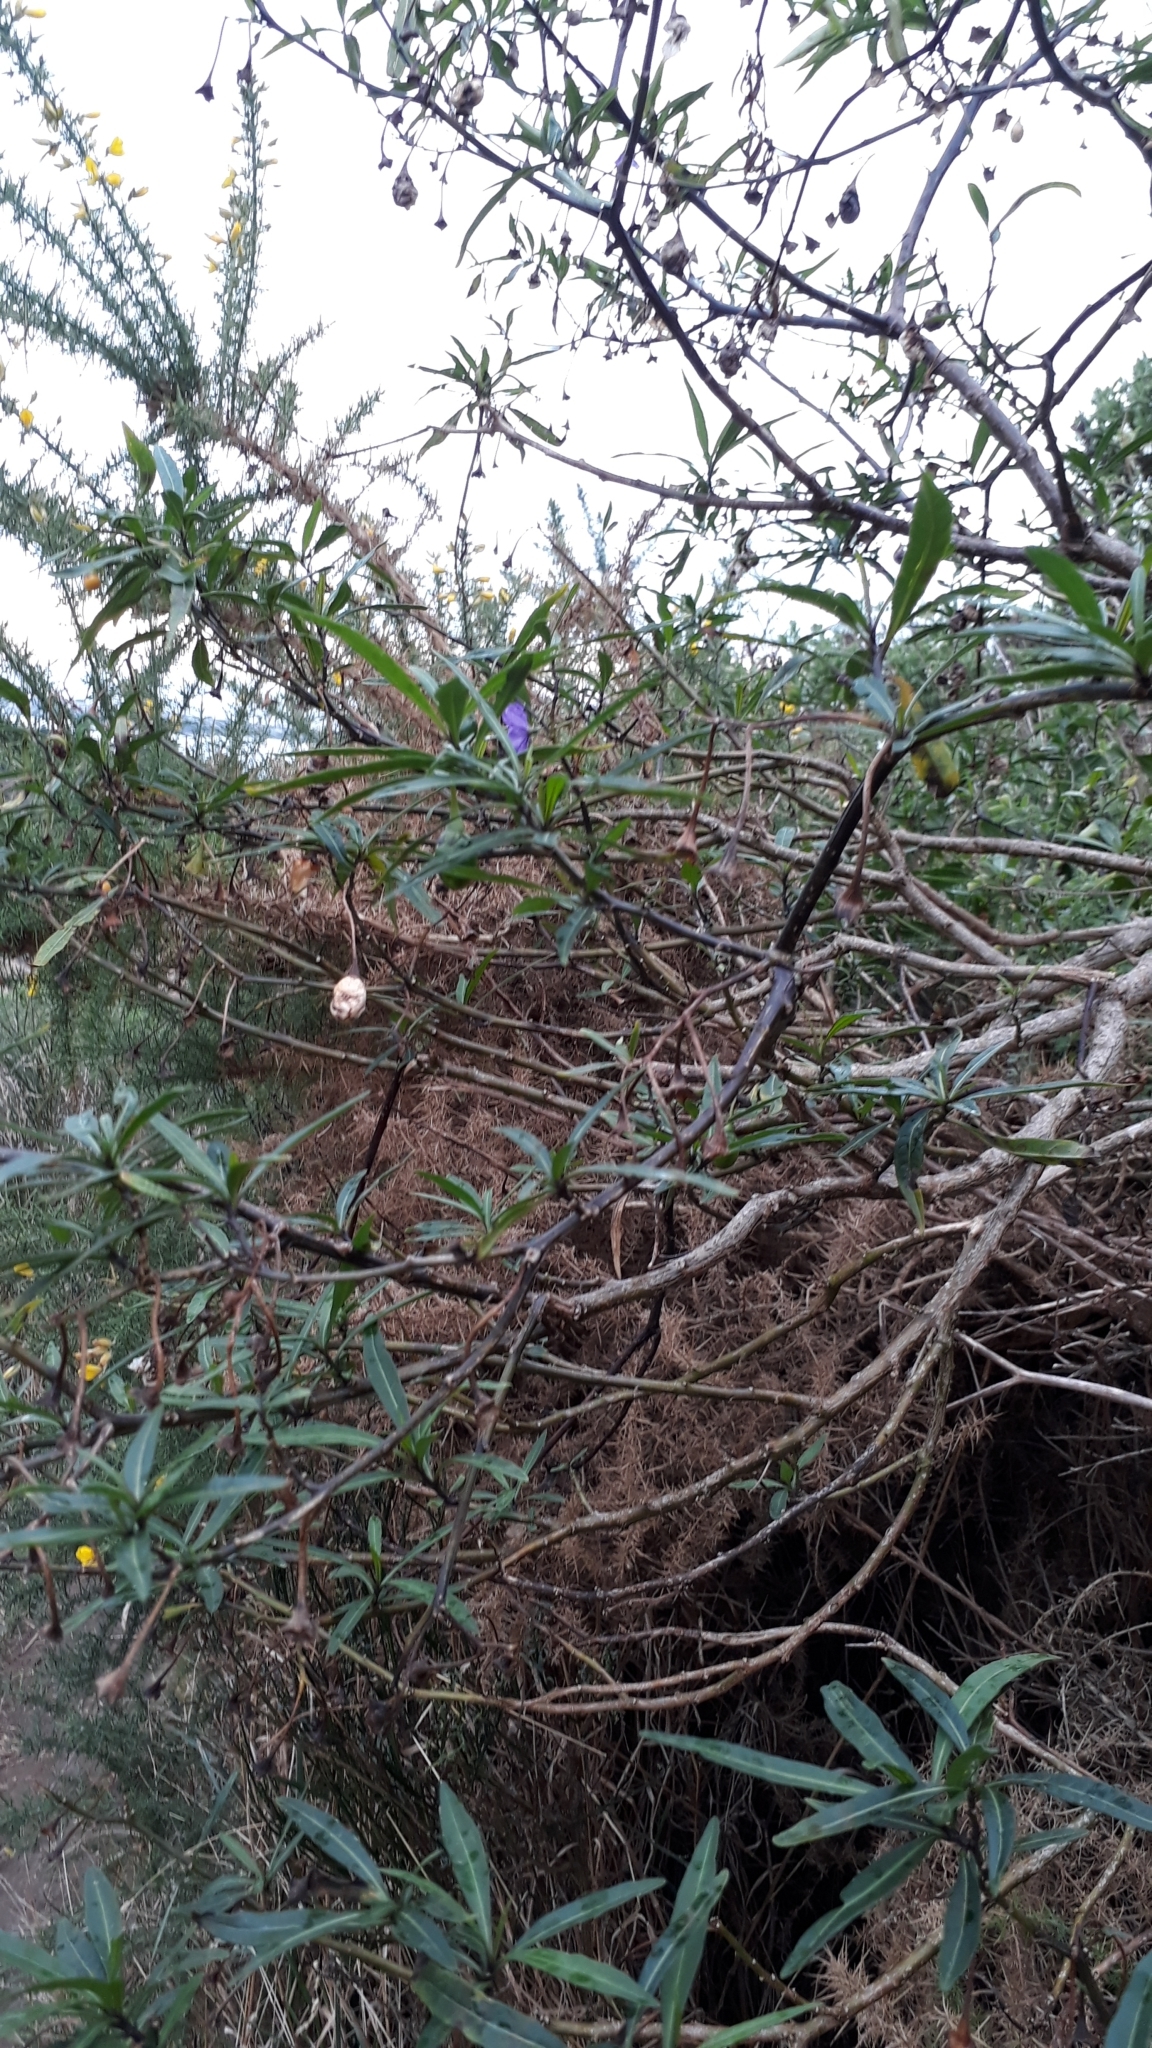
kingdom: Plantae
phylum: Tracheophyta
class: Magnoliopsida
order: Solanales
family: Solanaceae
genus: Solanum
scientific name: Solanum laciniatum
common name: Kangaroo-apple
